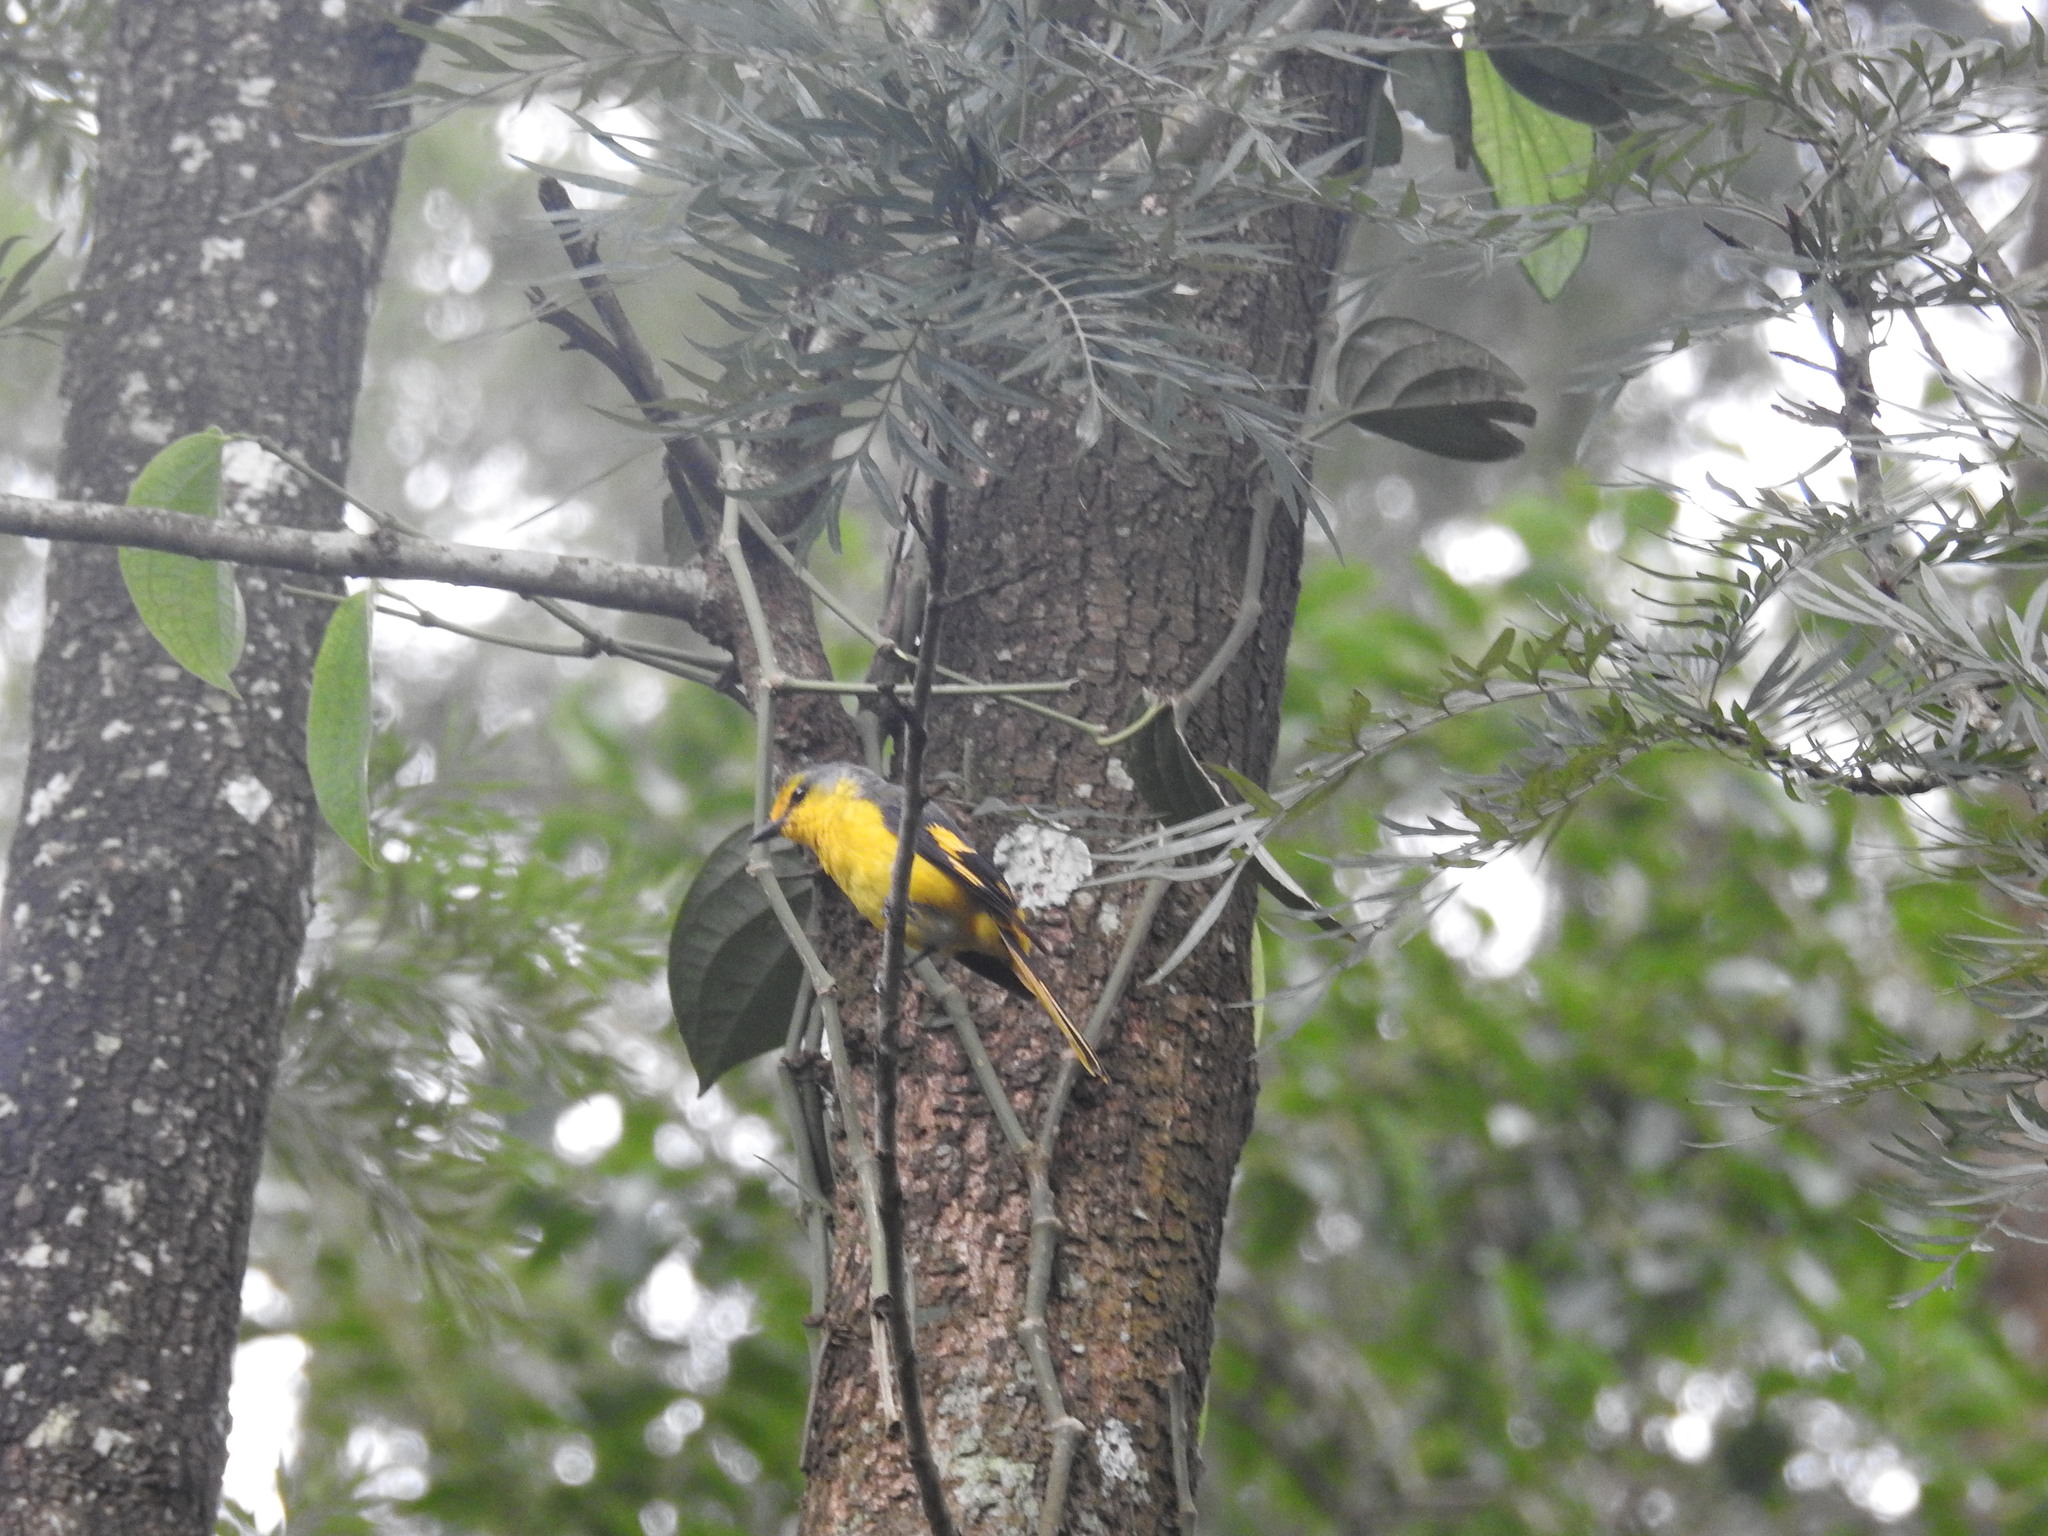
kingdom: Animalia
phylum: Chordata
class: Aves
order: Passeriformes
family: Campephagidae
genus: Pericrocotus
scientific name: Pericrocotus speciosus
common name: Scarlet minivet
